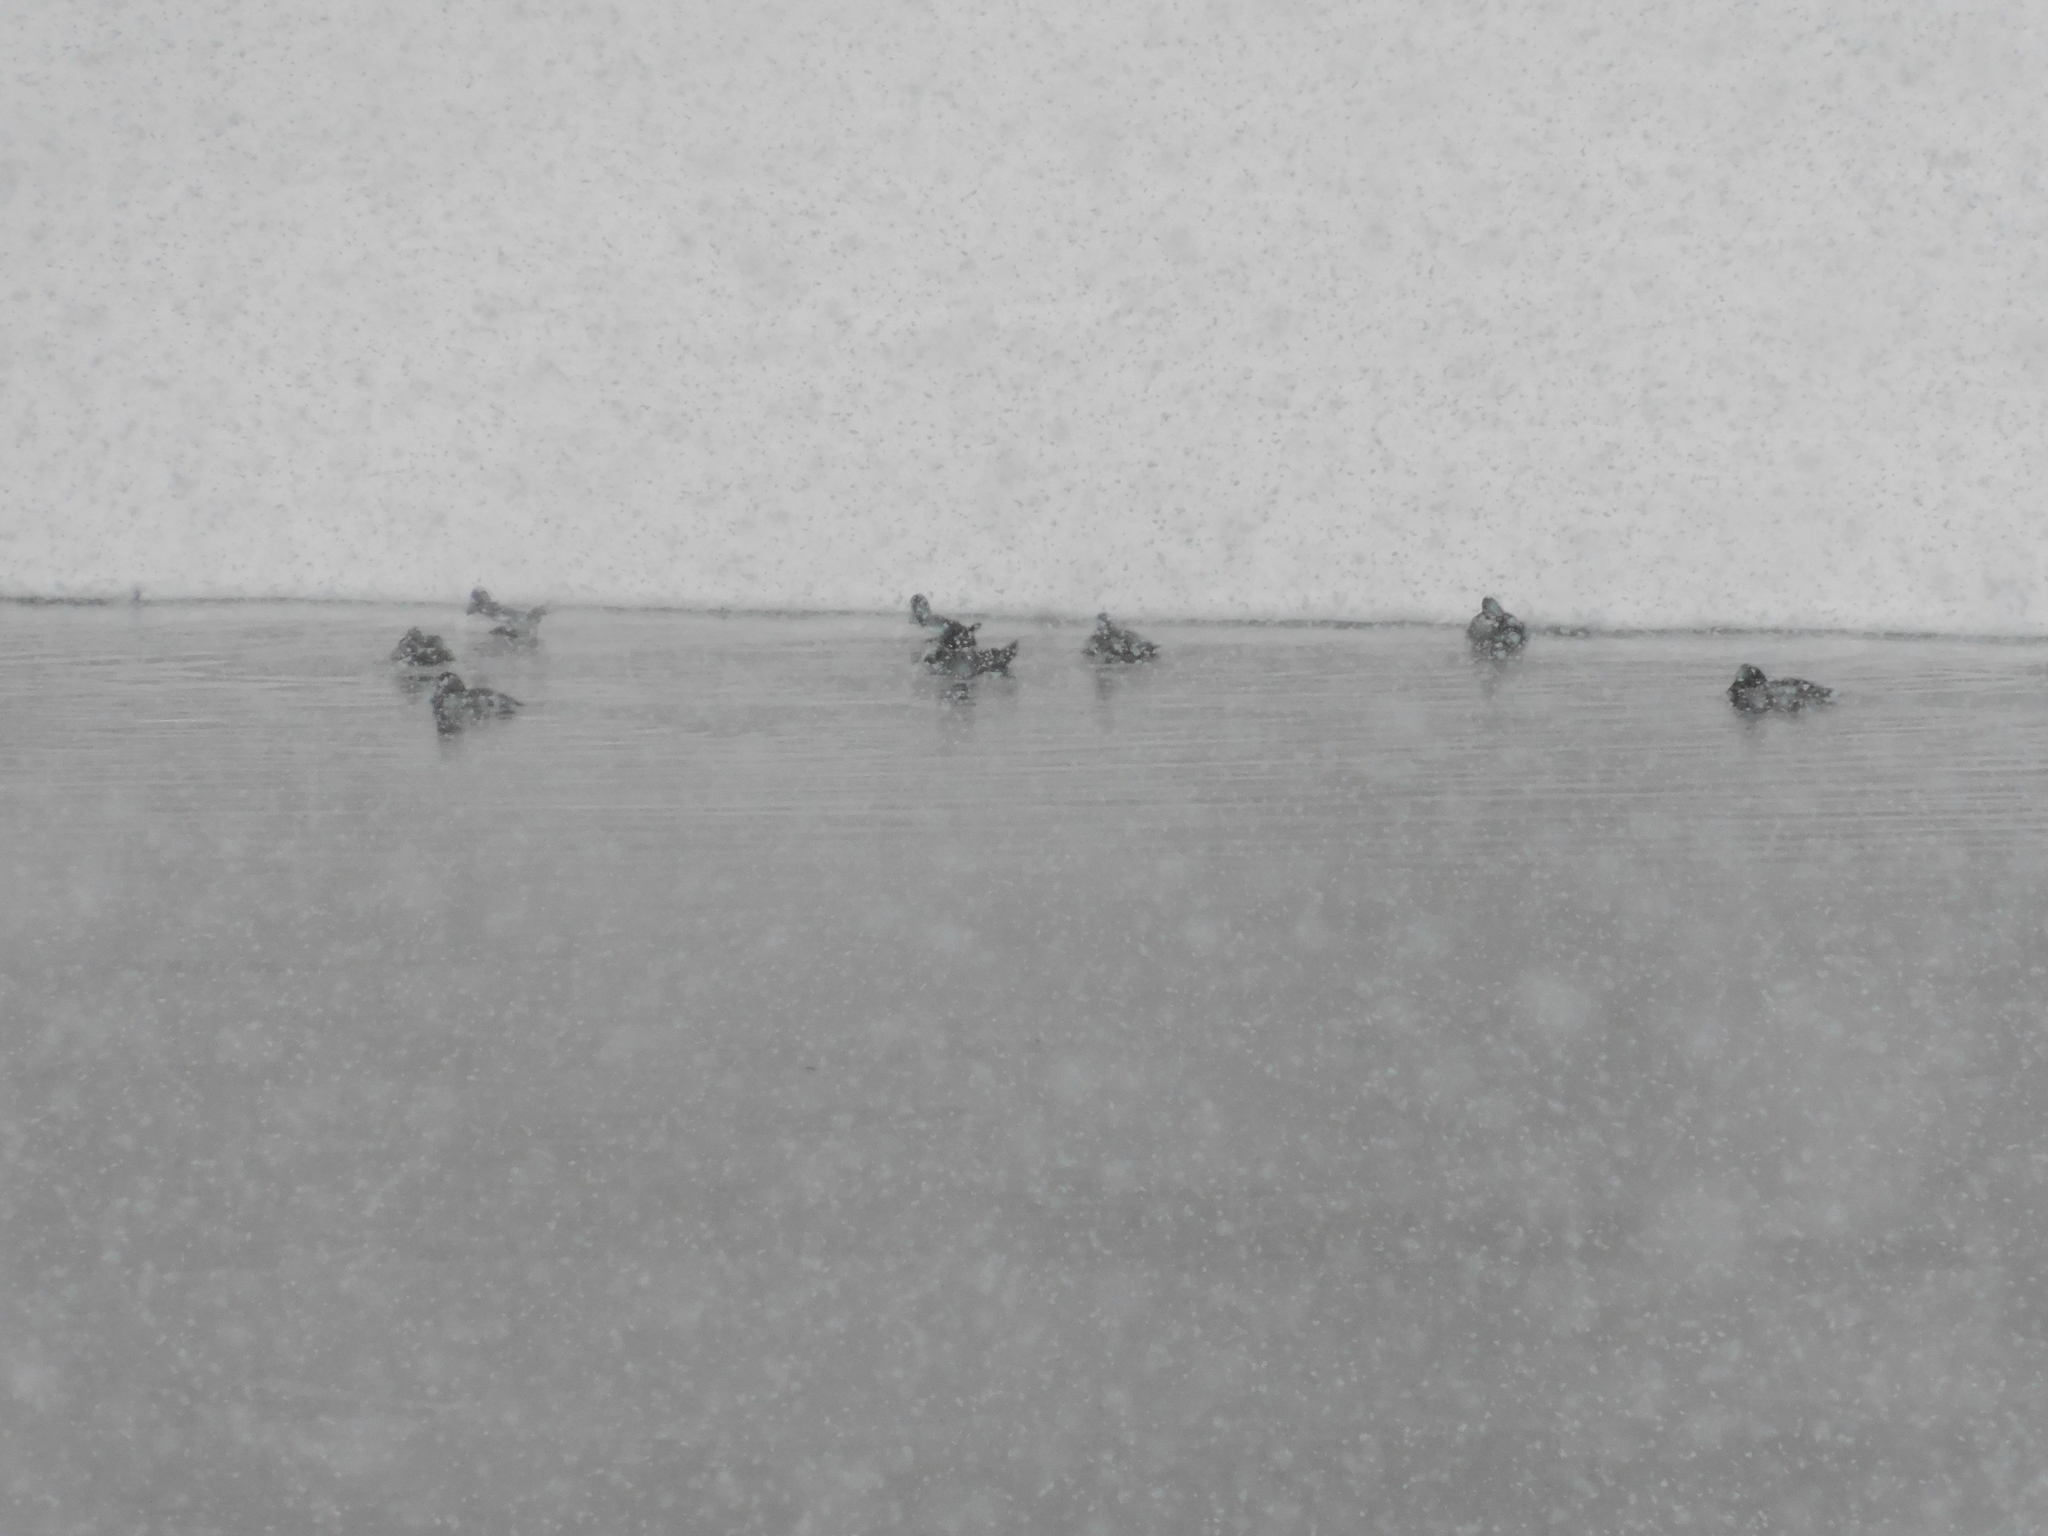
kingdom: Animalia
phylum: Chordata
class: Aves
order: Anseriformes
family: Anatidae
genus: Bucephala
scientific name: Bucephala clangula
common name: Common goldeneye
